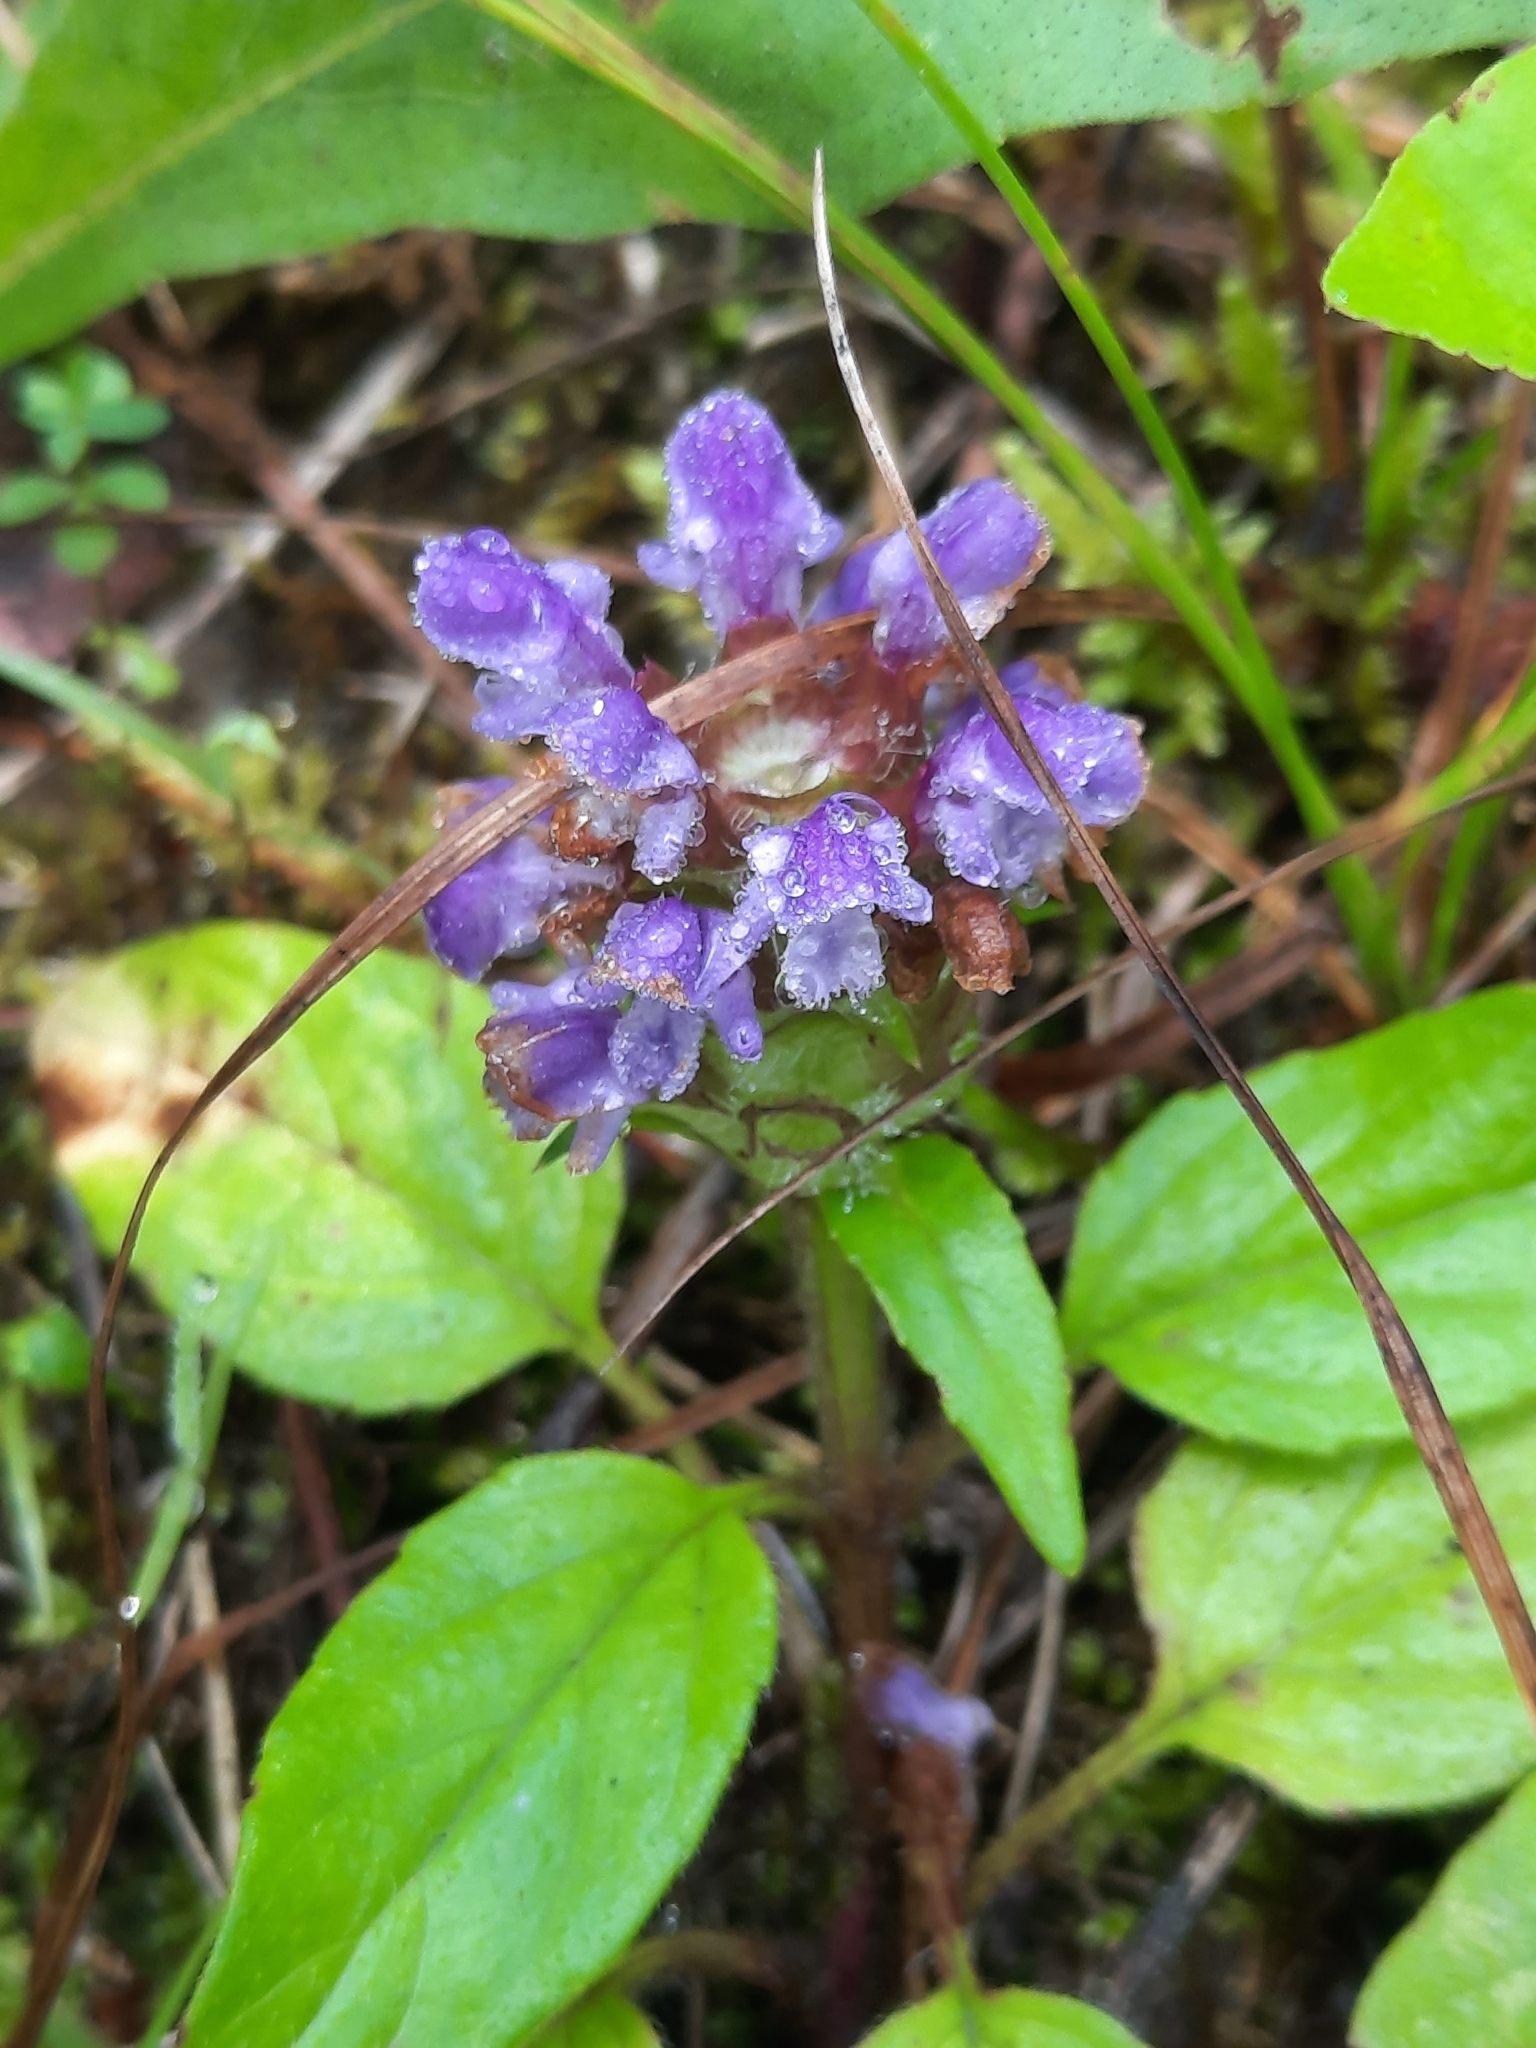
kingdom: Plantae
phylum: Tracheophyta
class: Magnoliopsida
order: Lamiales
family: Lamiaceae
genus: Prunella
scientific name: Prunella vulgaris
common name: Heal-all
